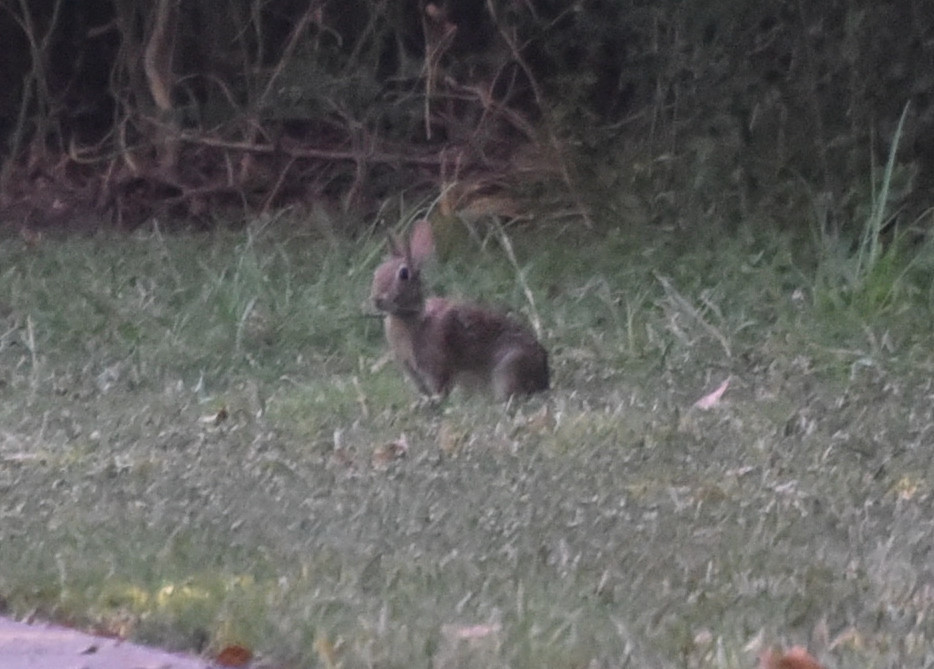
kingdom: Animalia
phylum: Chordata
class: Mammalia
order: Lagomorpha
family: Leporidae
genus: Sylvilagus
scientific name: Sylvilagus floridanus
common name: Eastern cottontail
